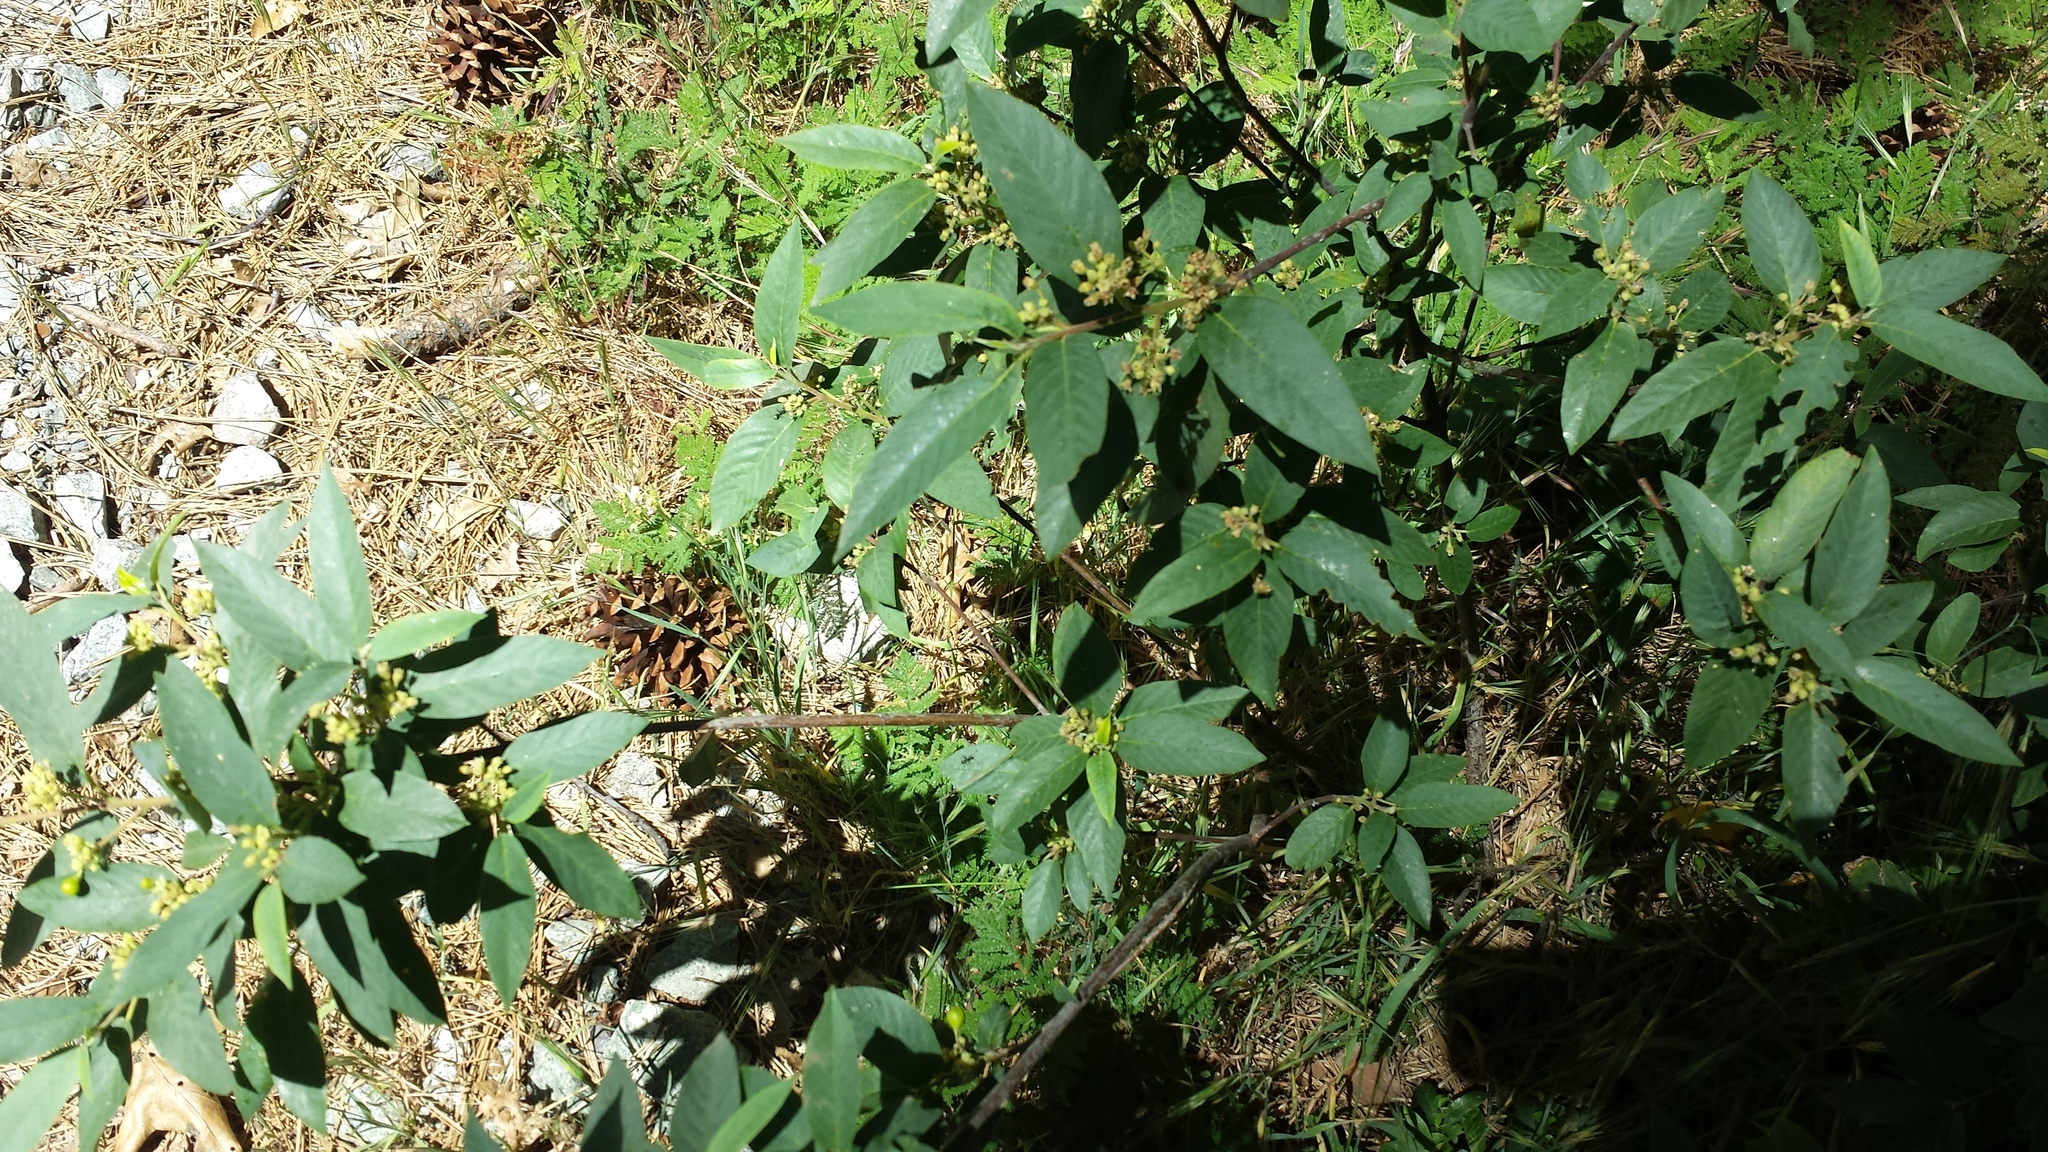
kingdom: Plantae
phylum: Tracheophyta
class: Magnoliopsida
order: Rosales
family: Rhamnaceae
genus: Frangula
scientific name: Frangula californica
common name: California buckthorn
